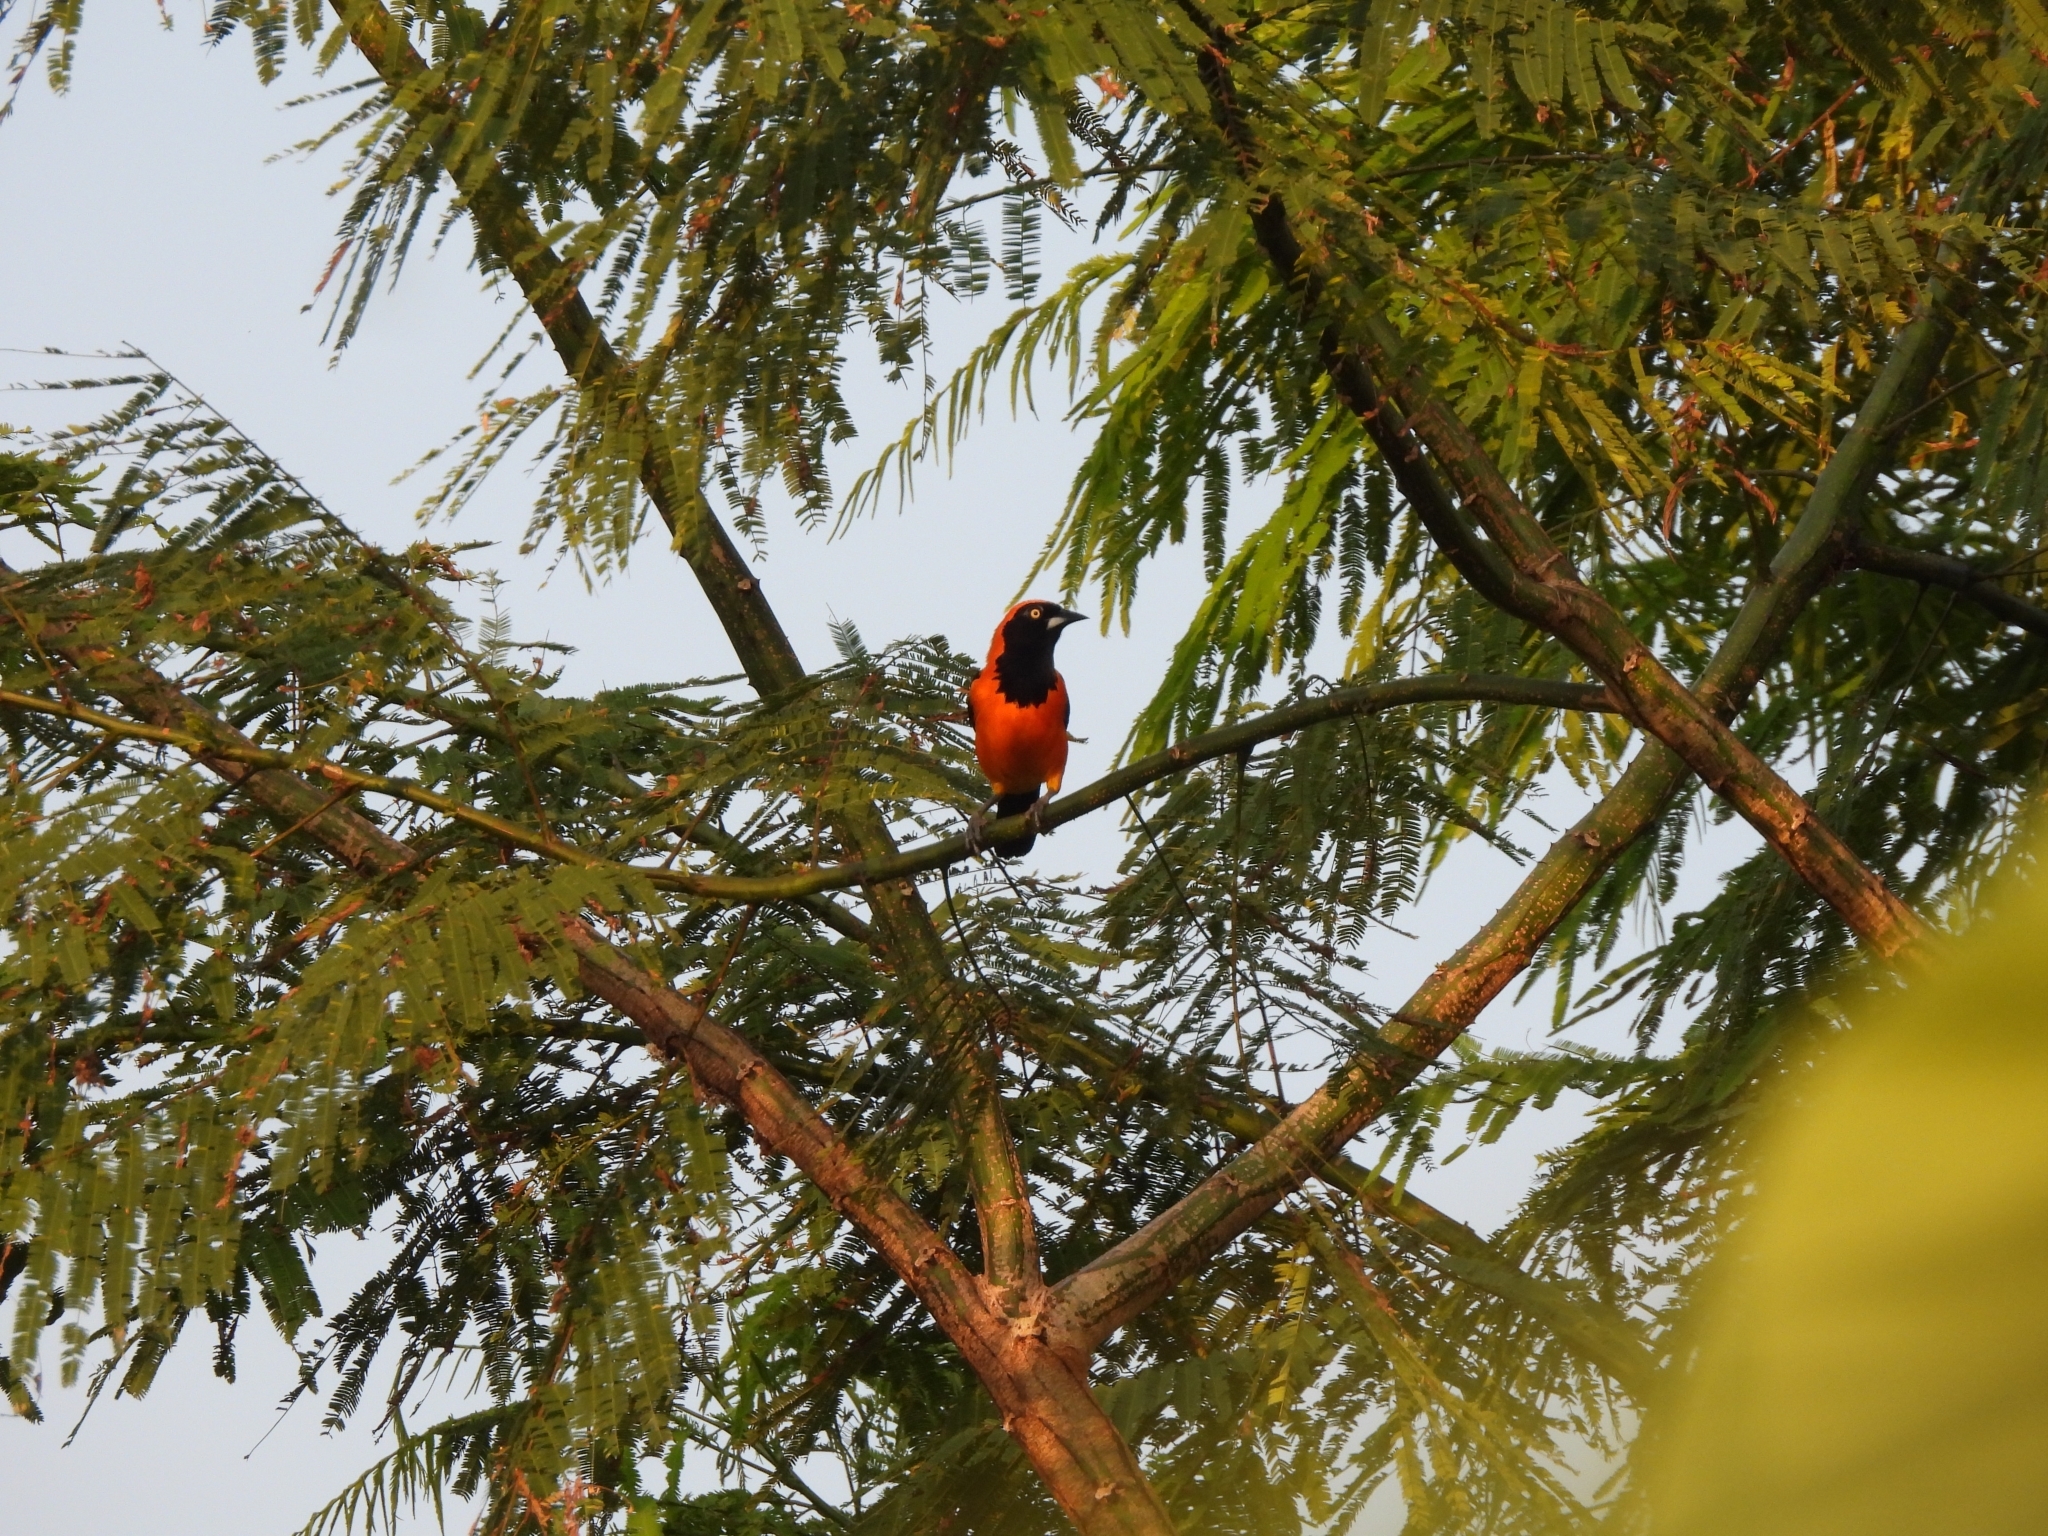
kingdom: Animalia
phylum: Chordata
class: Aves
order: Passeriformes
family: Icteridae
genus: Icterus
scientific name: Icterus icterus
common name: Venezuelan troupial
